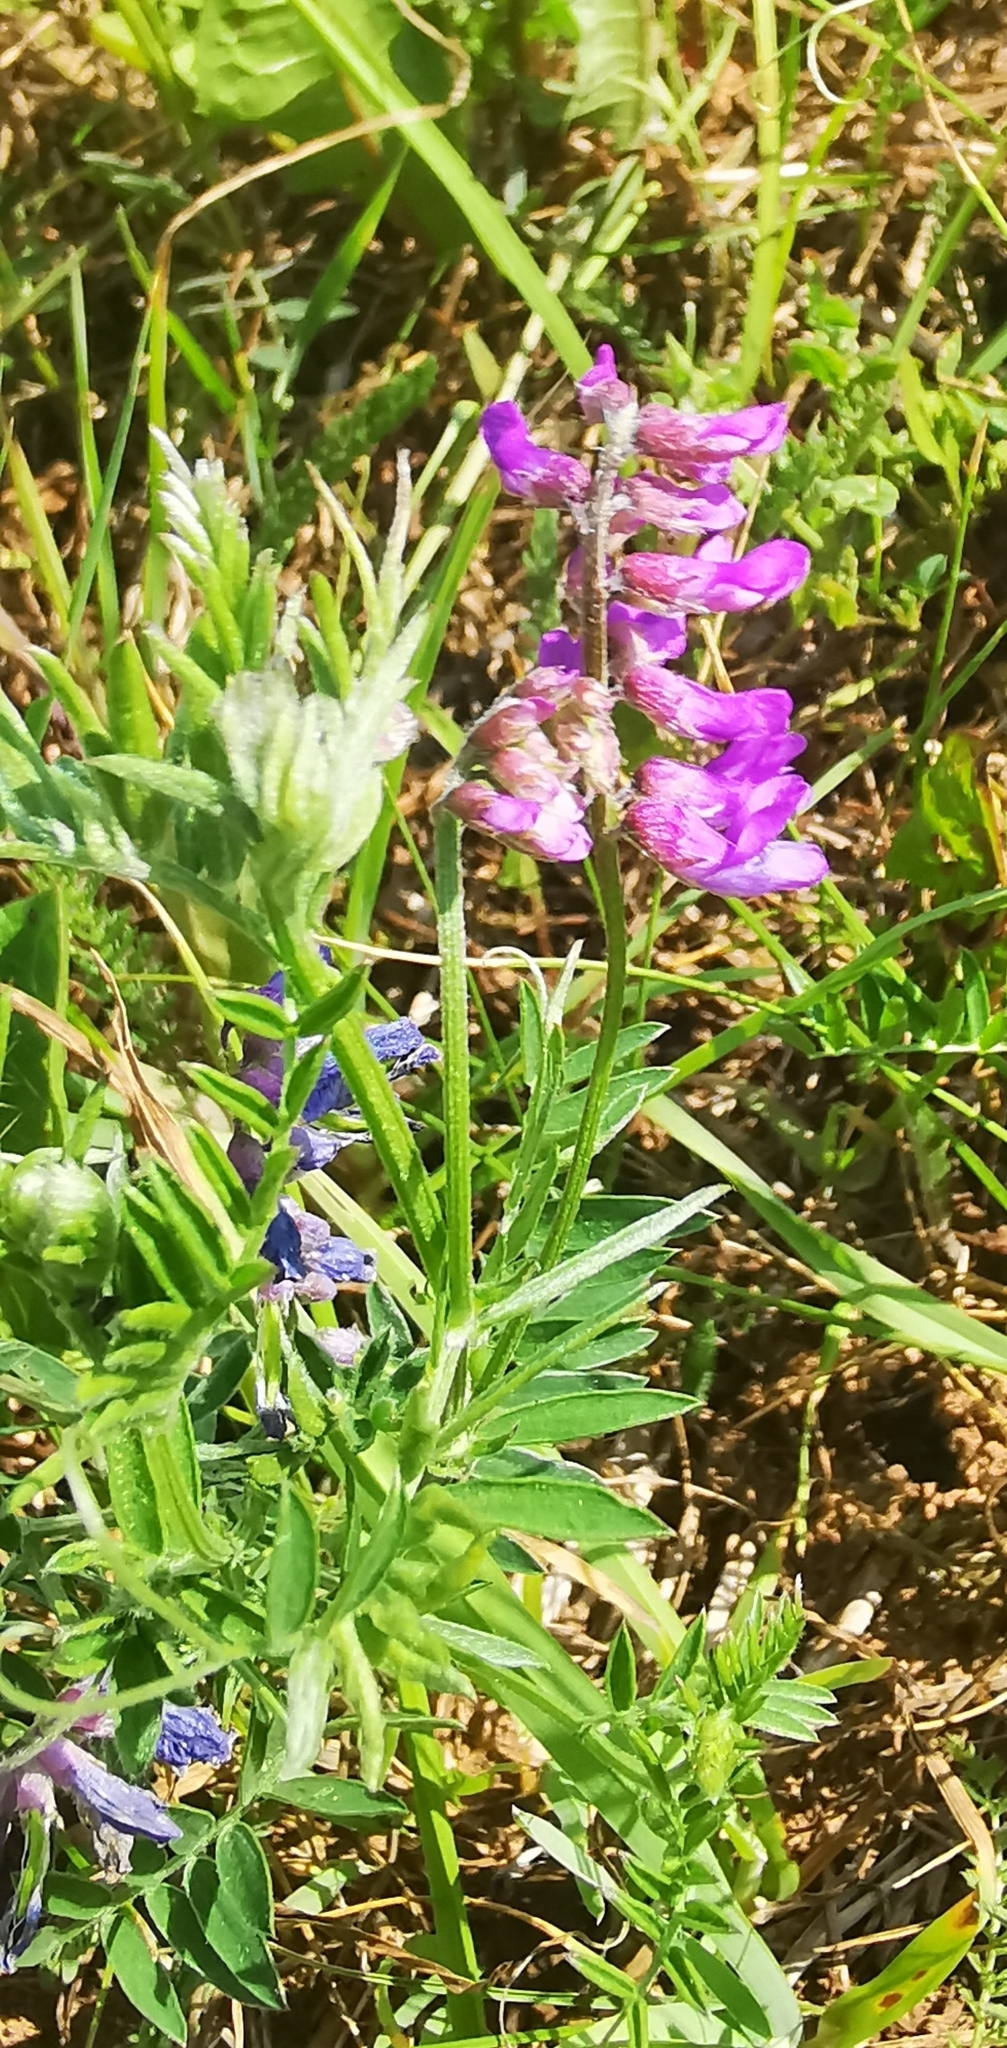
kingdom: Plantae
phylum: Tracheophyta
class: Magnoliopsida
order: Fabales
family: Fabaceae
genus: Vicia
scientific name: Vicia cracca
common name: Bird vetch
